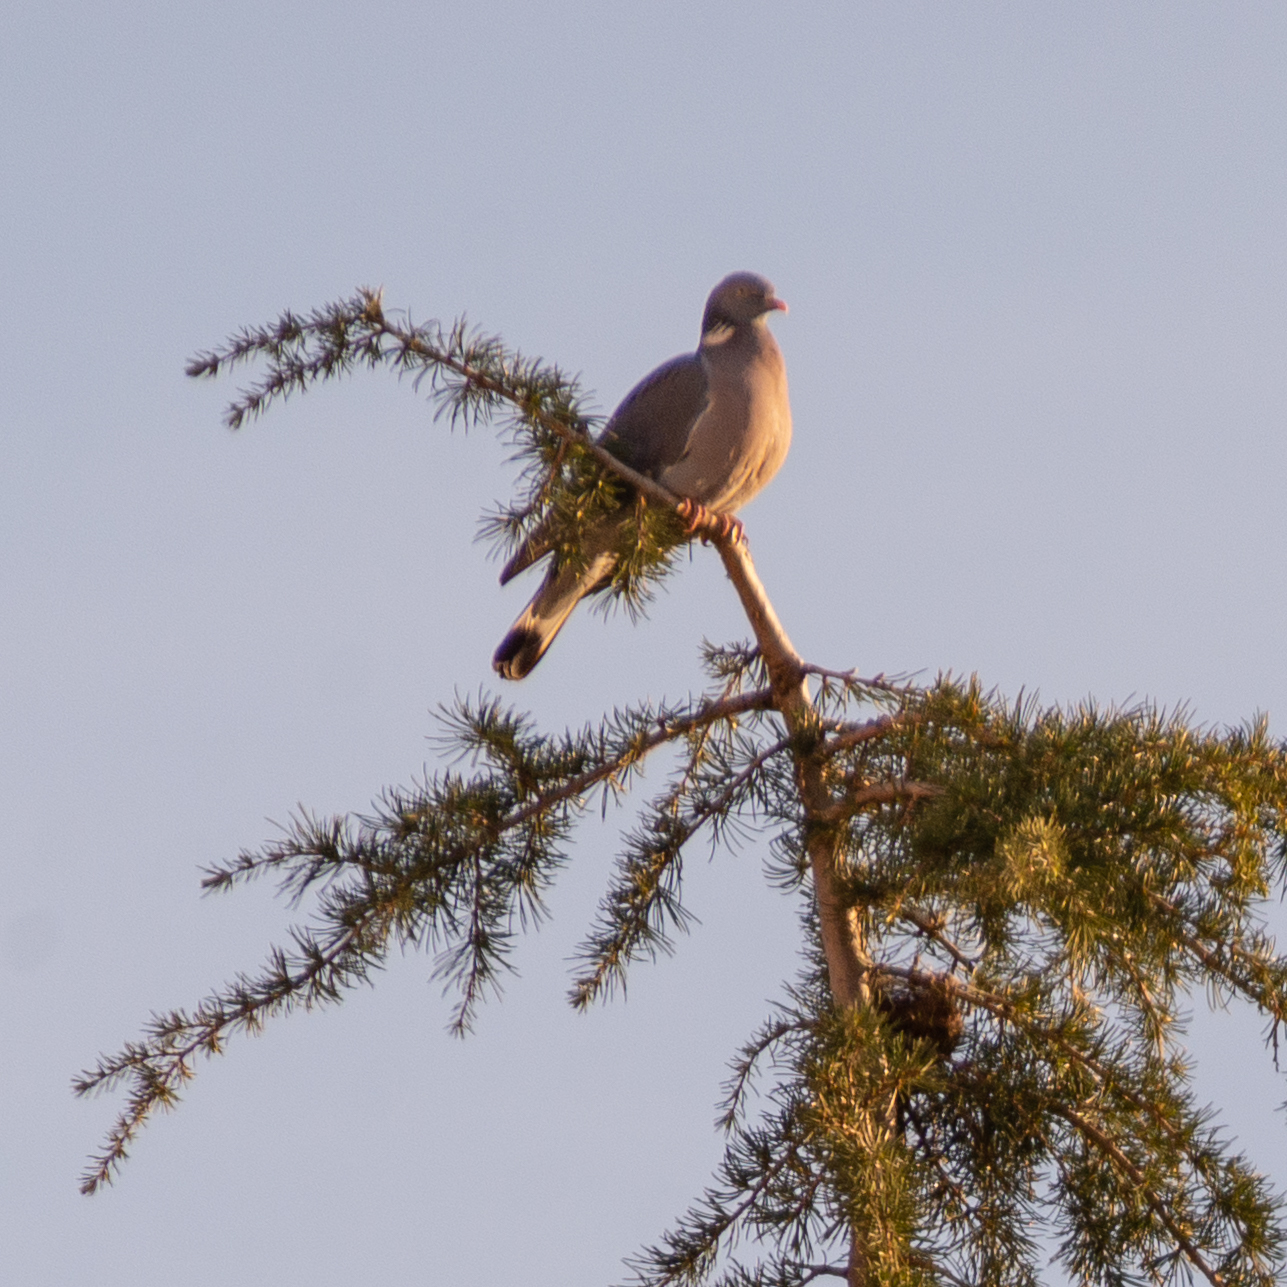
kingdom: Animalia
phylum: Chordata
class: Aves
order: Columbiformes
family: Columbidae
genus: Columba
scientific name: Columba palumbus
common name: Common wood pigeon
